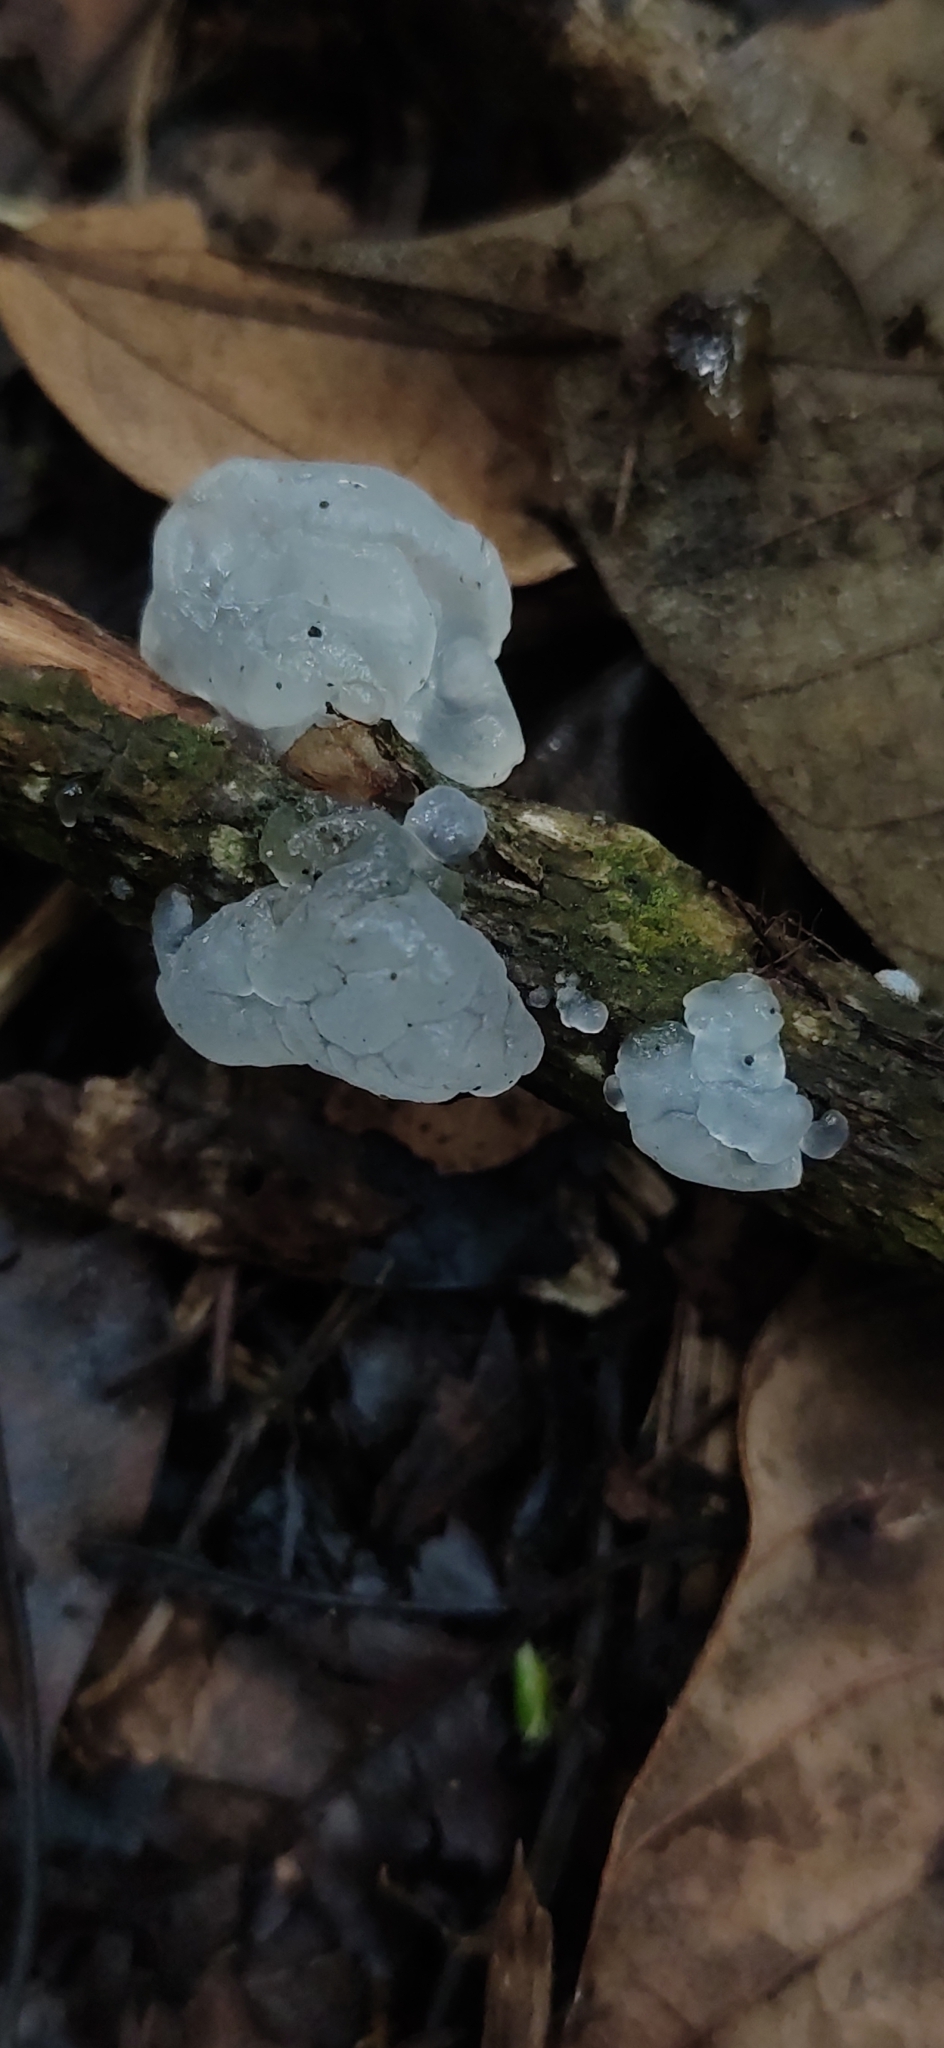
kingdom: Fungi
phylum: Basidiomycota
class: Tremellomycetes
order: Tremellales
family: Tremellaceae
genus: Tremella
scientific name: Tremella fuciformis
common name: Snow fungus
